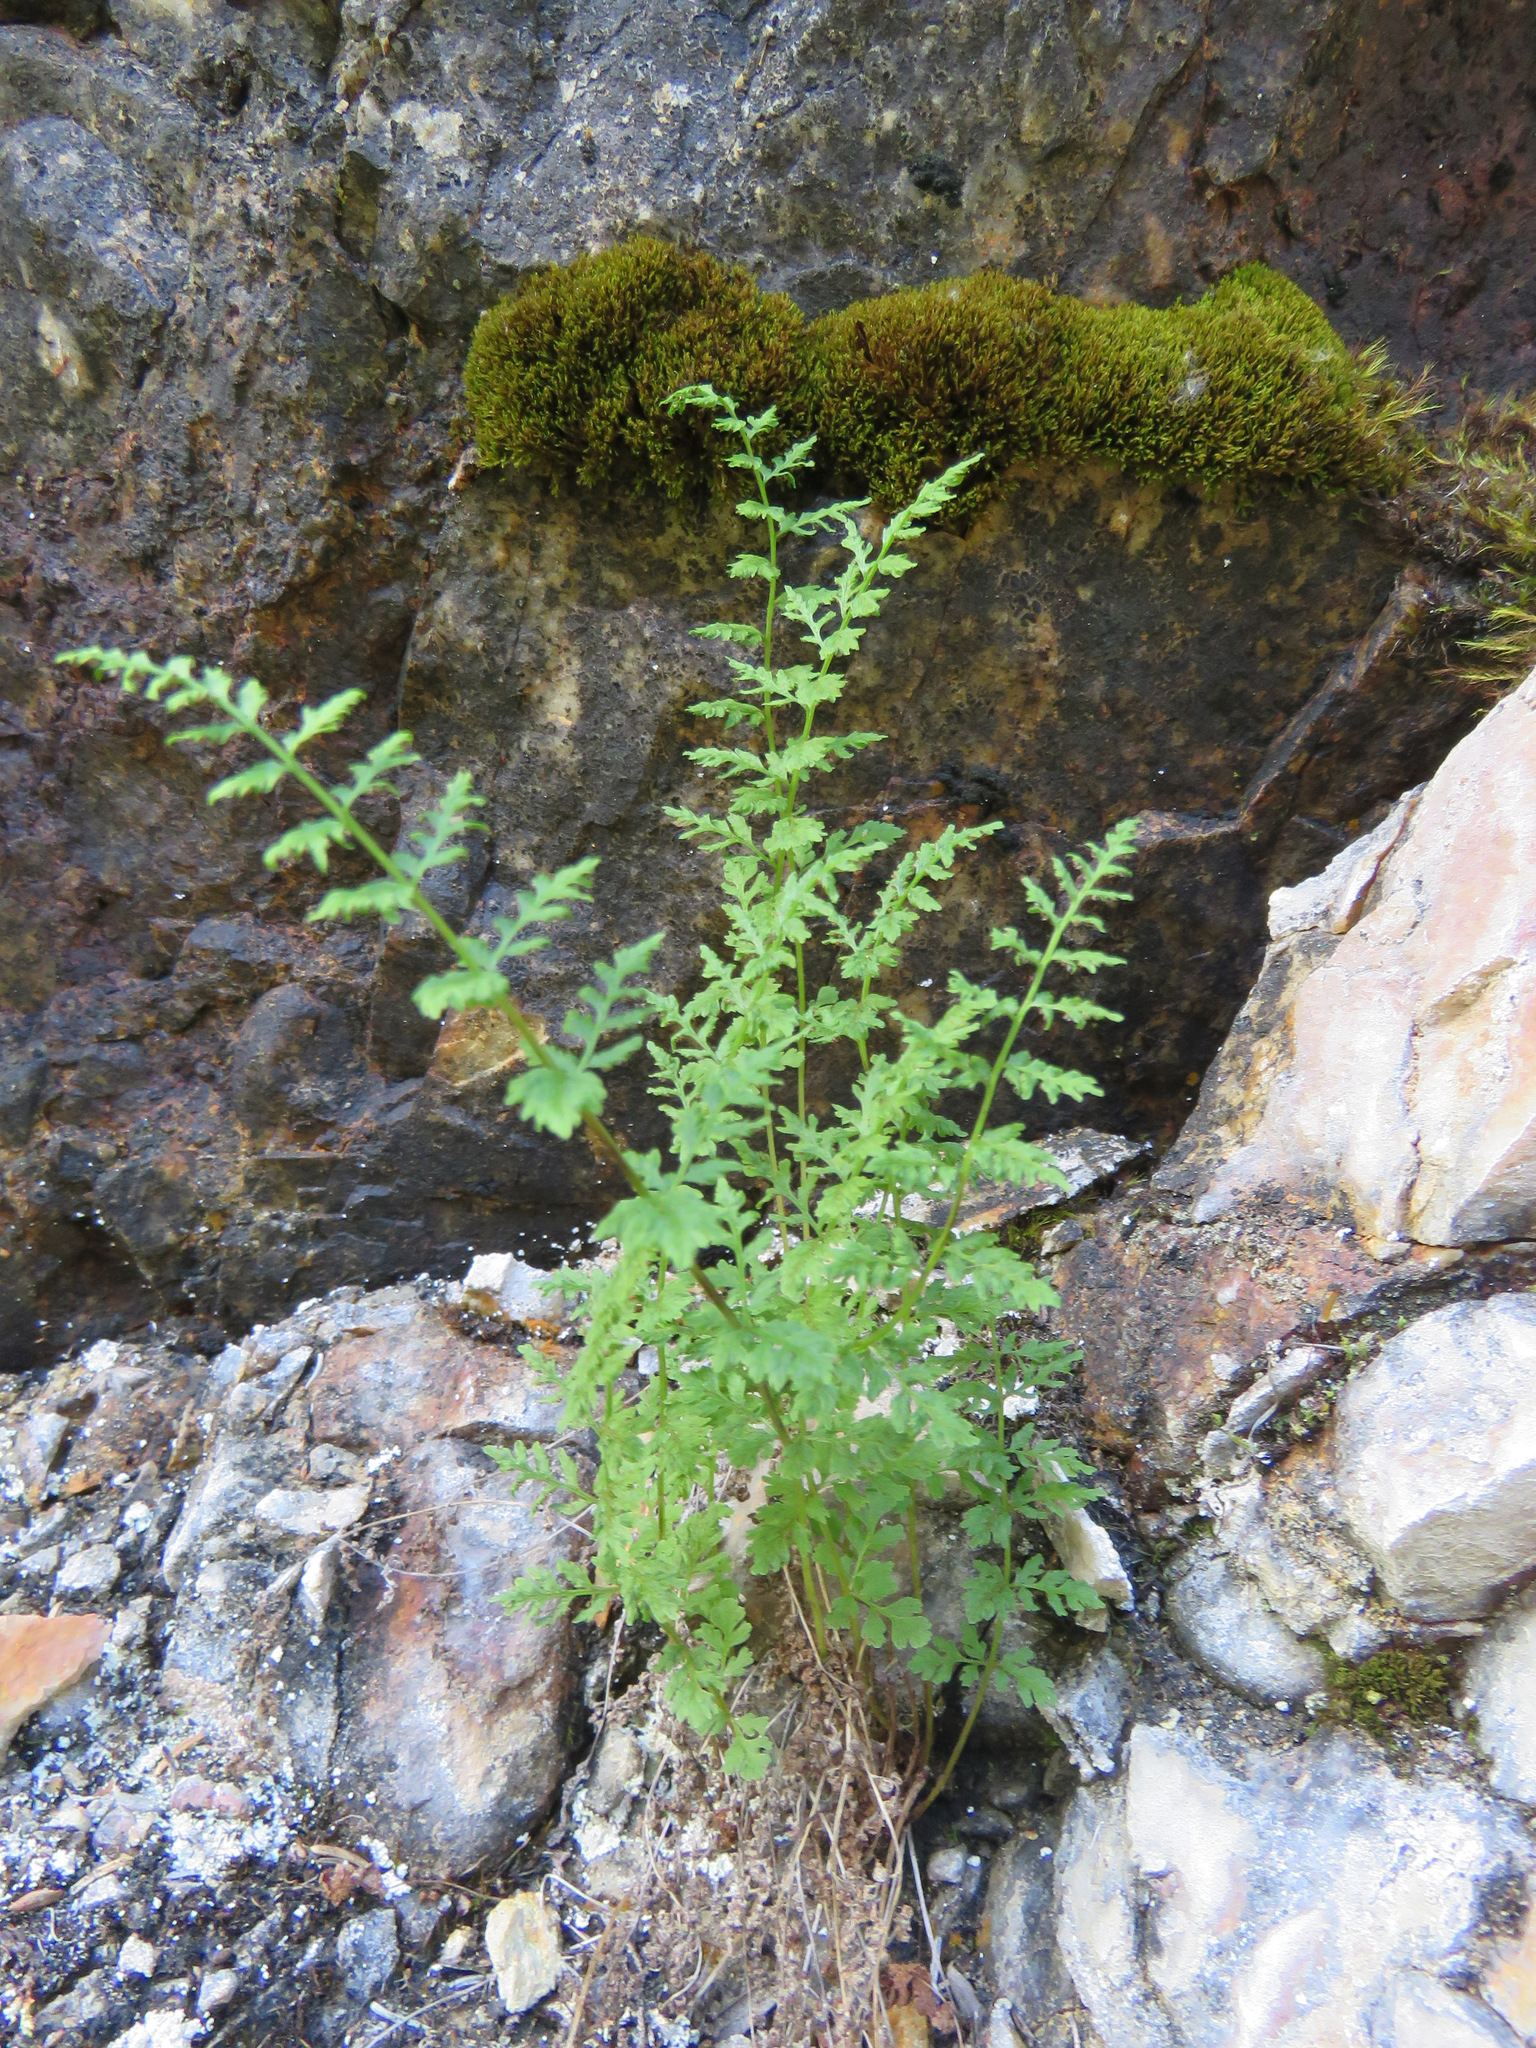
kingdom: Plantae
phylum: Tracheophyta
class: Polypodiopsida
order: Polypodiales
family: Cystopteridaceae
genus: Cystopteris
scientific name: Cystopteris fragilis
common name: Brittle bladder fern
